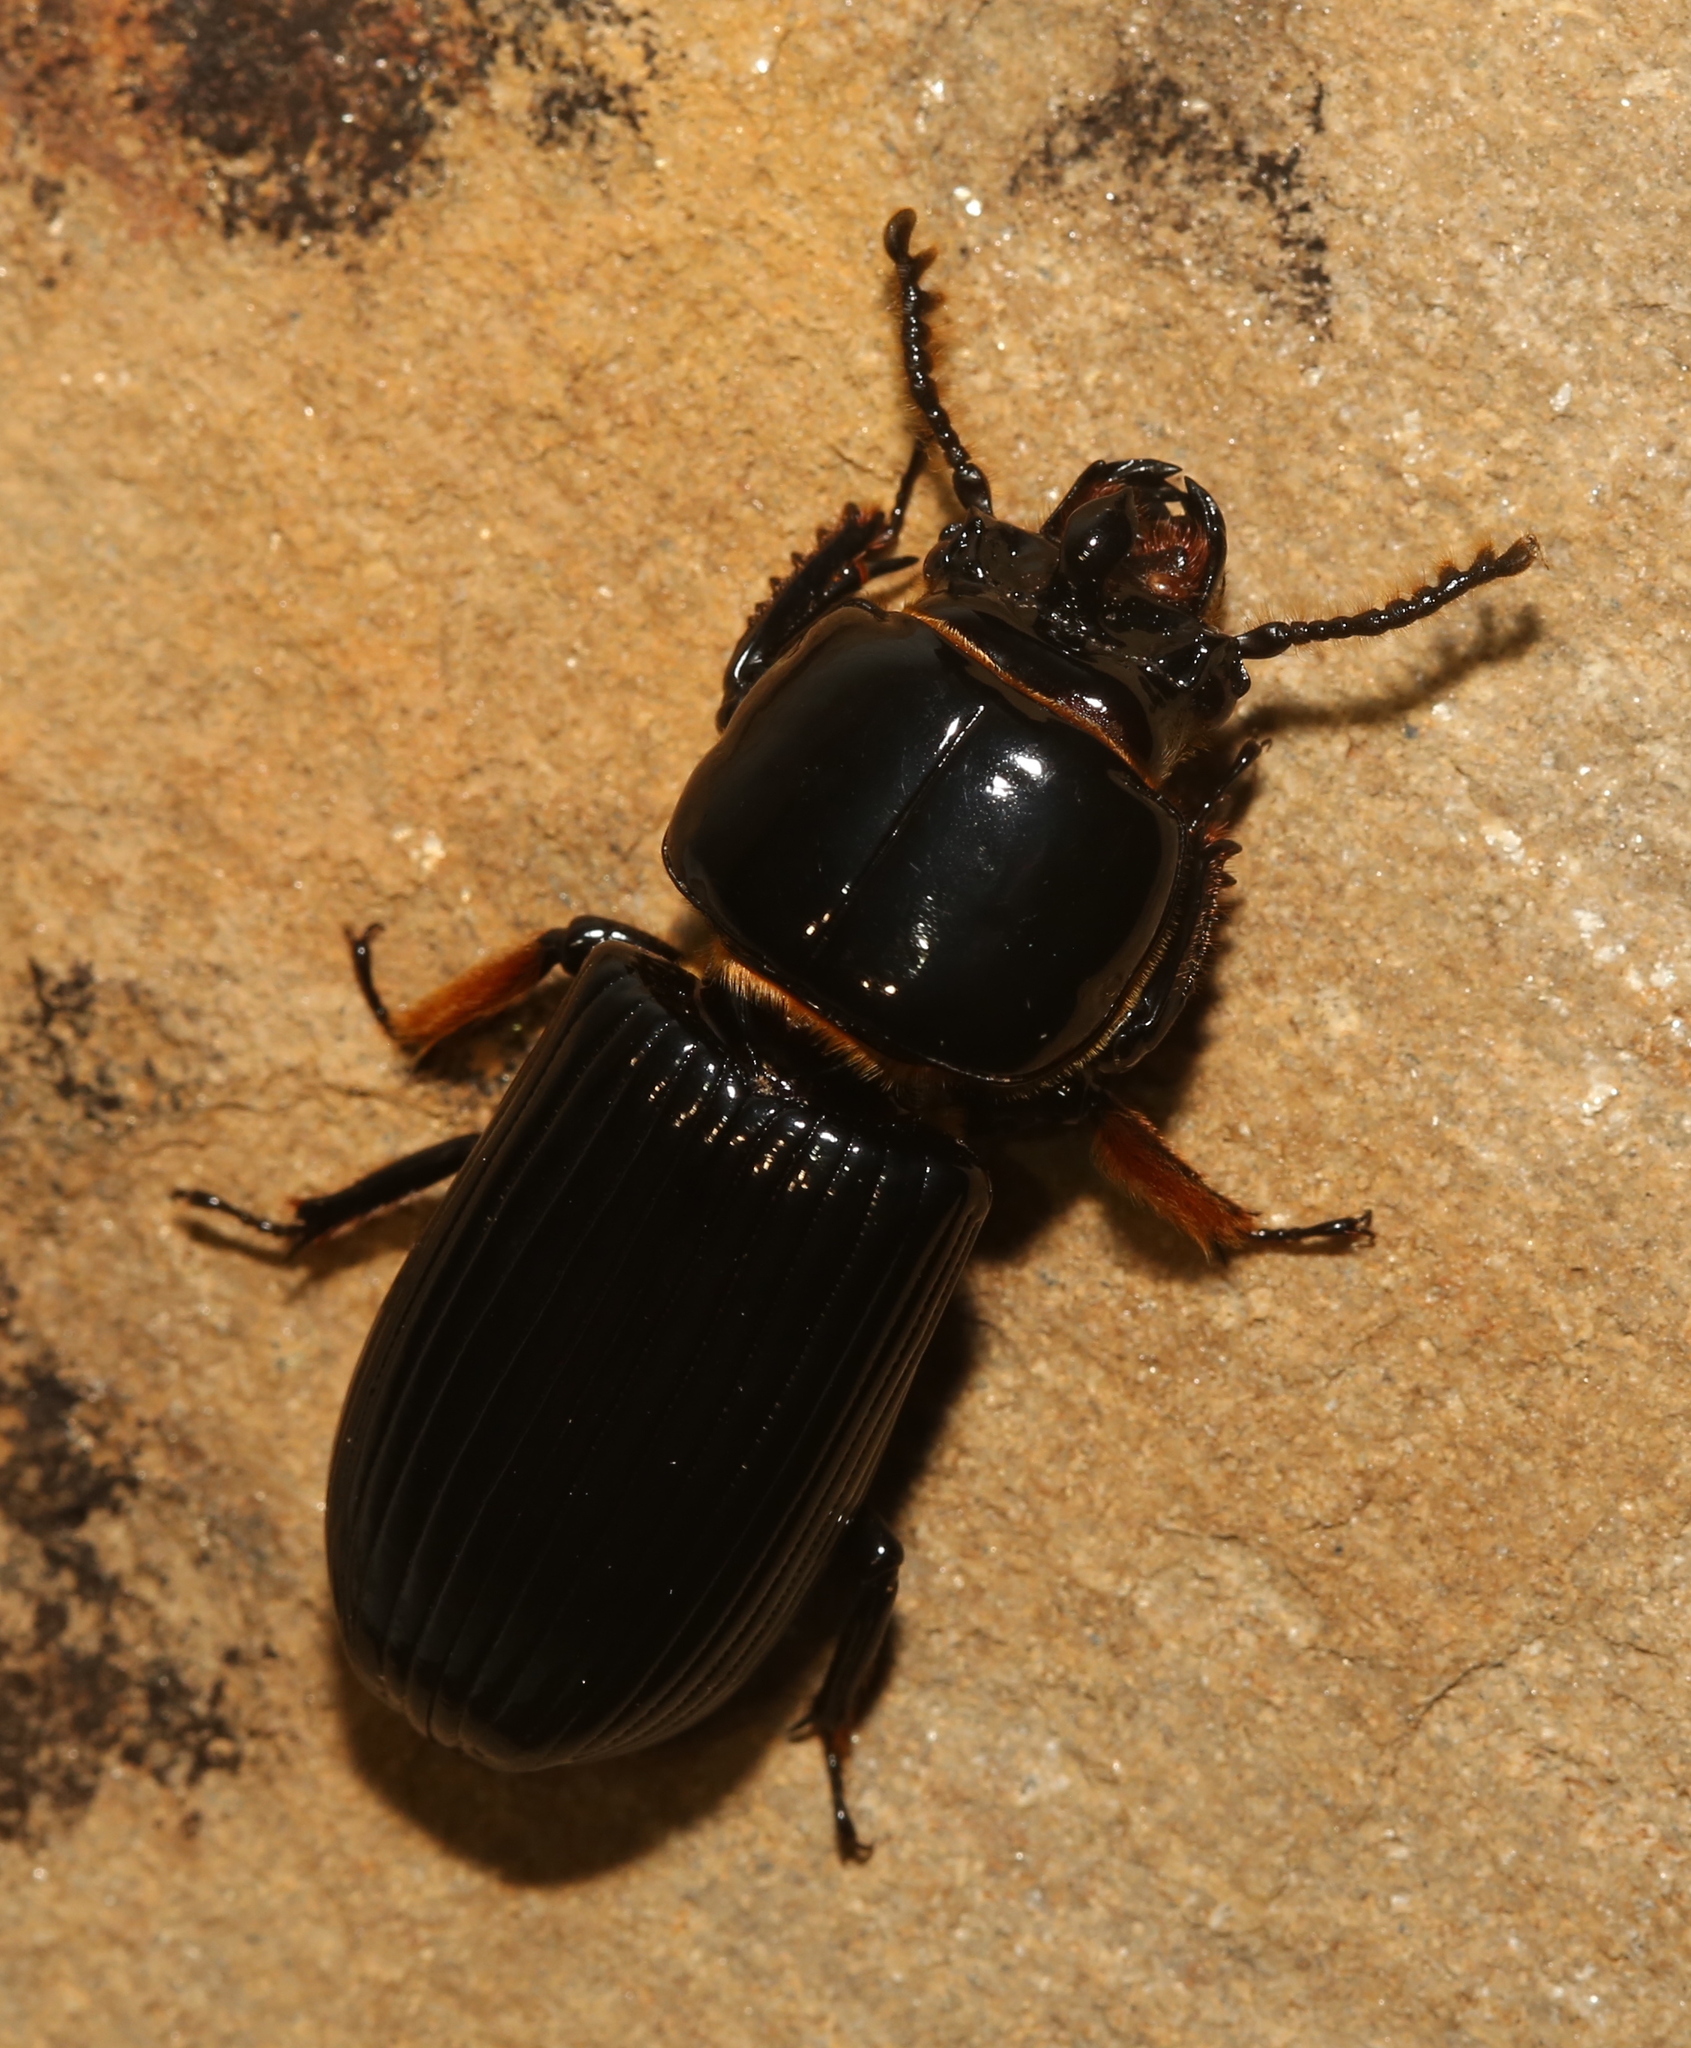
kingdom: Animalia
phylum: Arthropoda
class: Insecta
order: Coleoptera
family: Passalidae
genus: Odontotaenius
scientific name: Odontotaenius disjunctus
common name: Patent leather beetle
